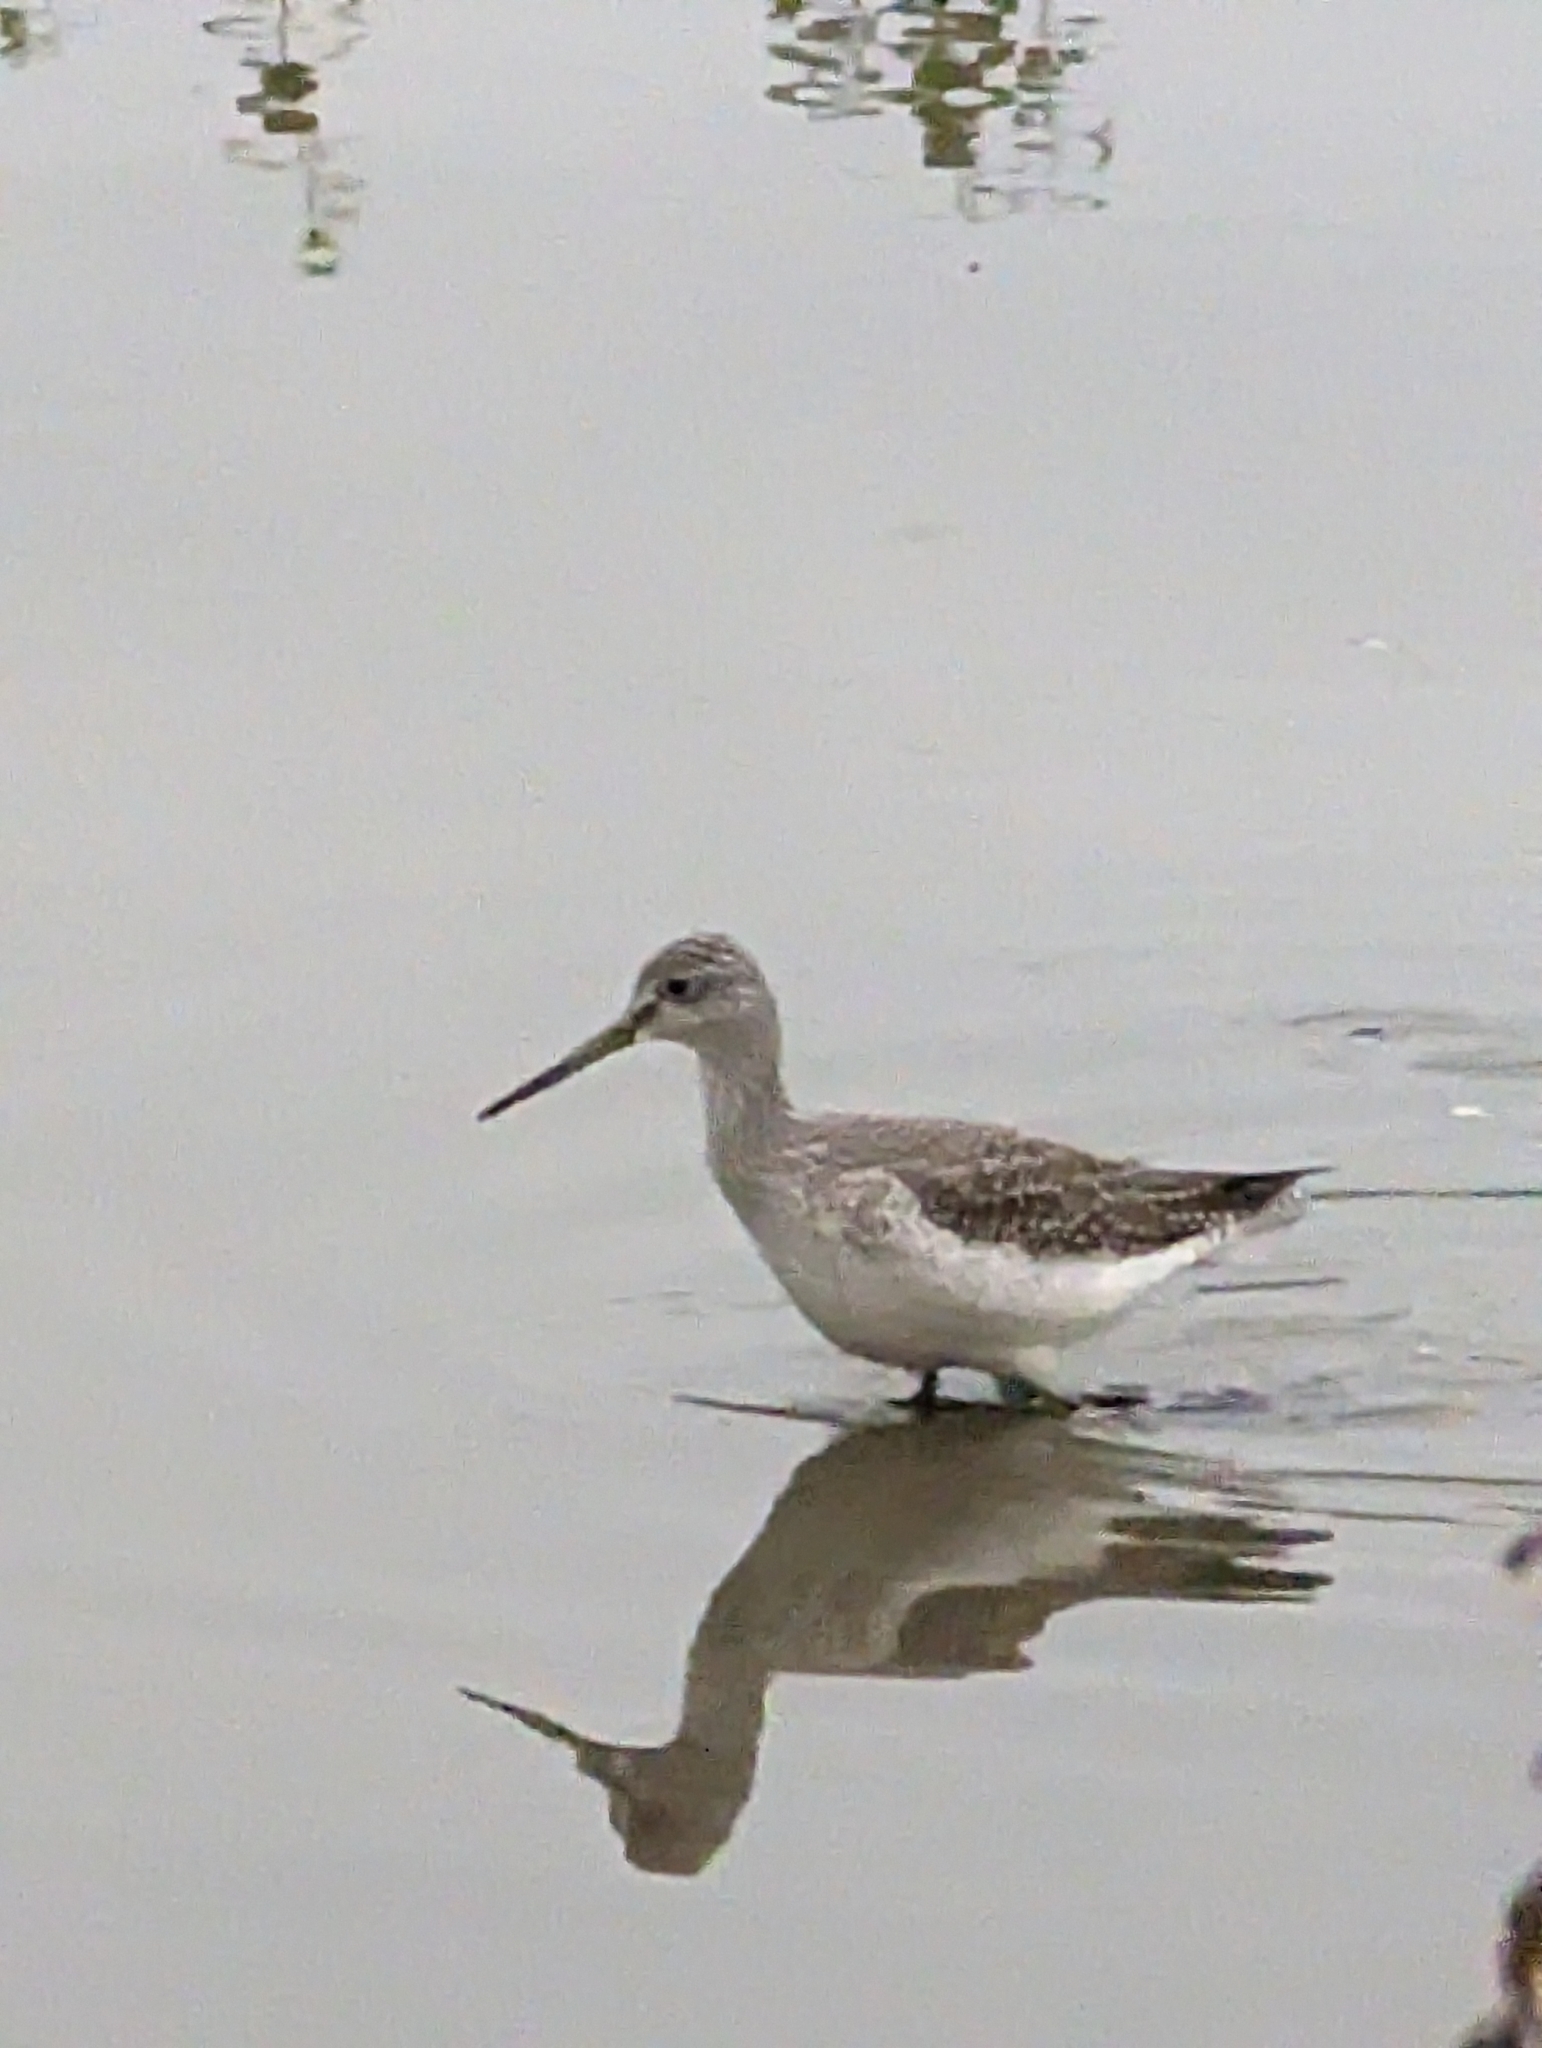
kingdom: Animalia
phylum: Chordata
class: Aves
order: Charadriiformes
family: Scolopacidae
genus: Tringa
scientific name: Tringa melanoleuca
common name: Greater yellowlegs
